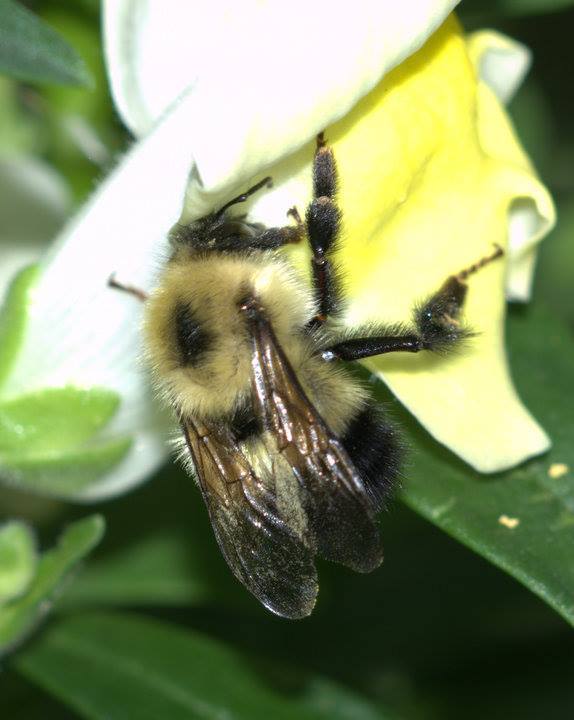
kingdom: Animalia
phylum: Arthropoda
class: Insecta
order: Hymenoptera
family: Apidae
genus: Bombus
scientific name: Bombus vagans
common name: Half-black bumble bee
